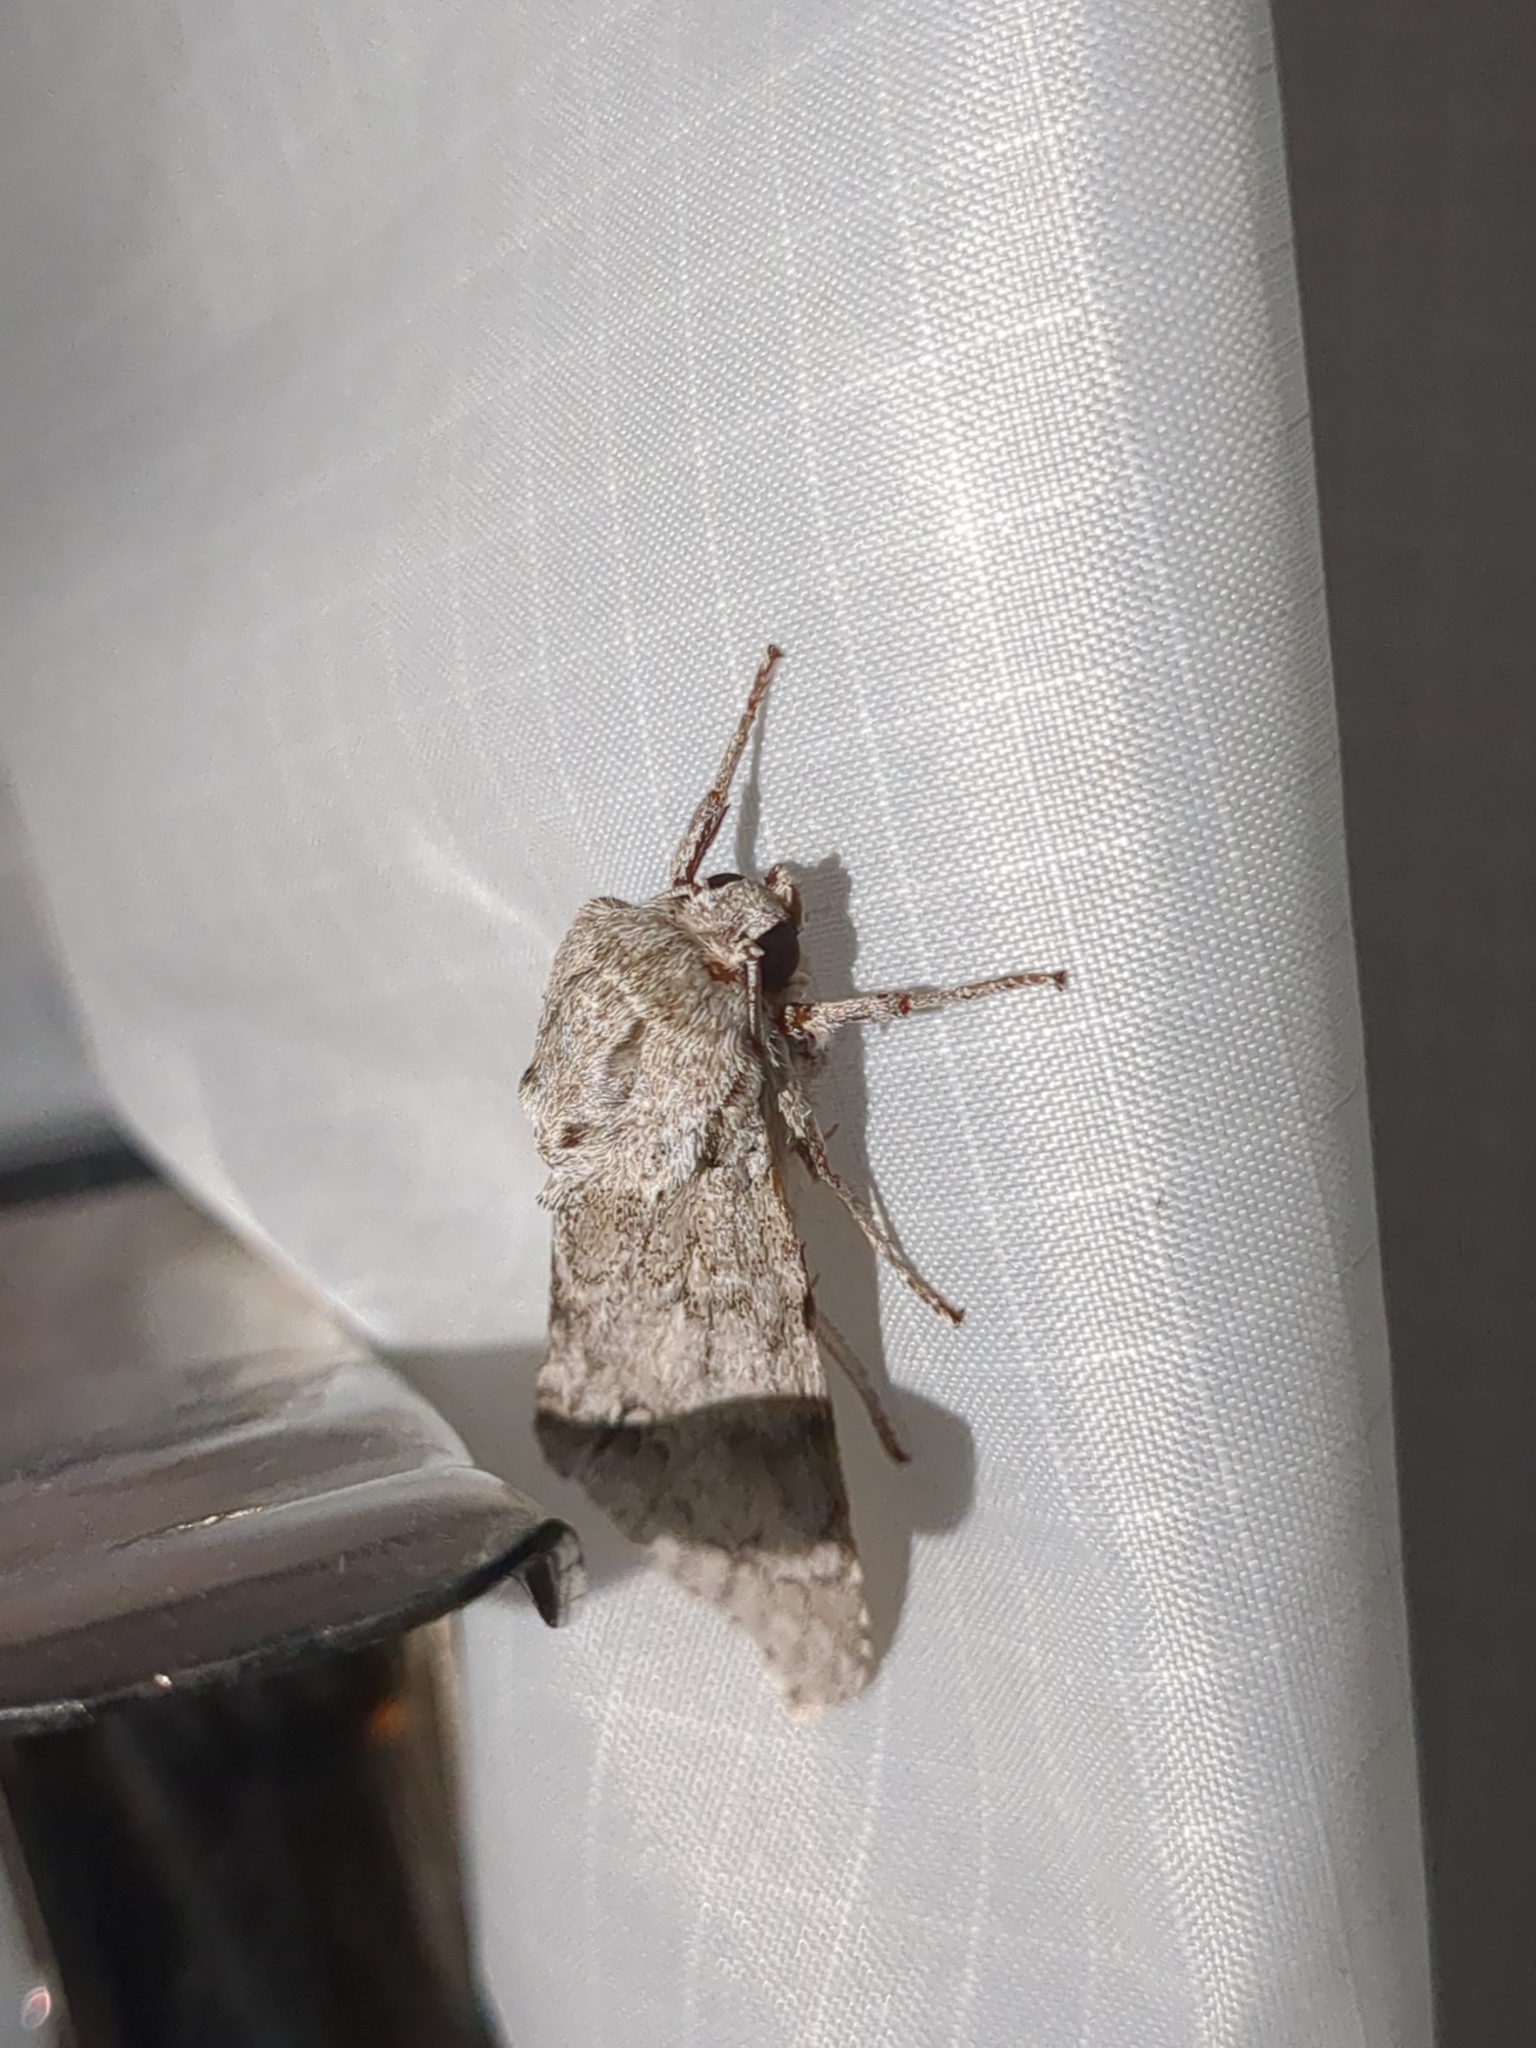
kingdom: Animalia
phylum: Arthropoda
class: Insecta
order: Lepidoptera
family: Notodontidae
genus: Lochmaeus
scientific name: Lochmaeus bilineata
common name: Double-lined prominent
